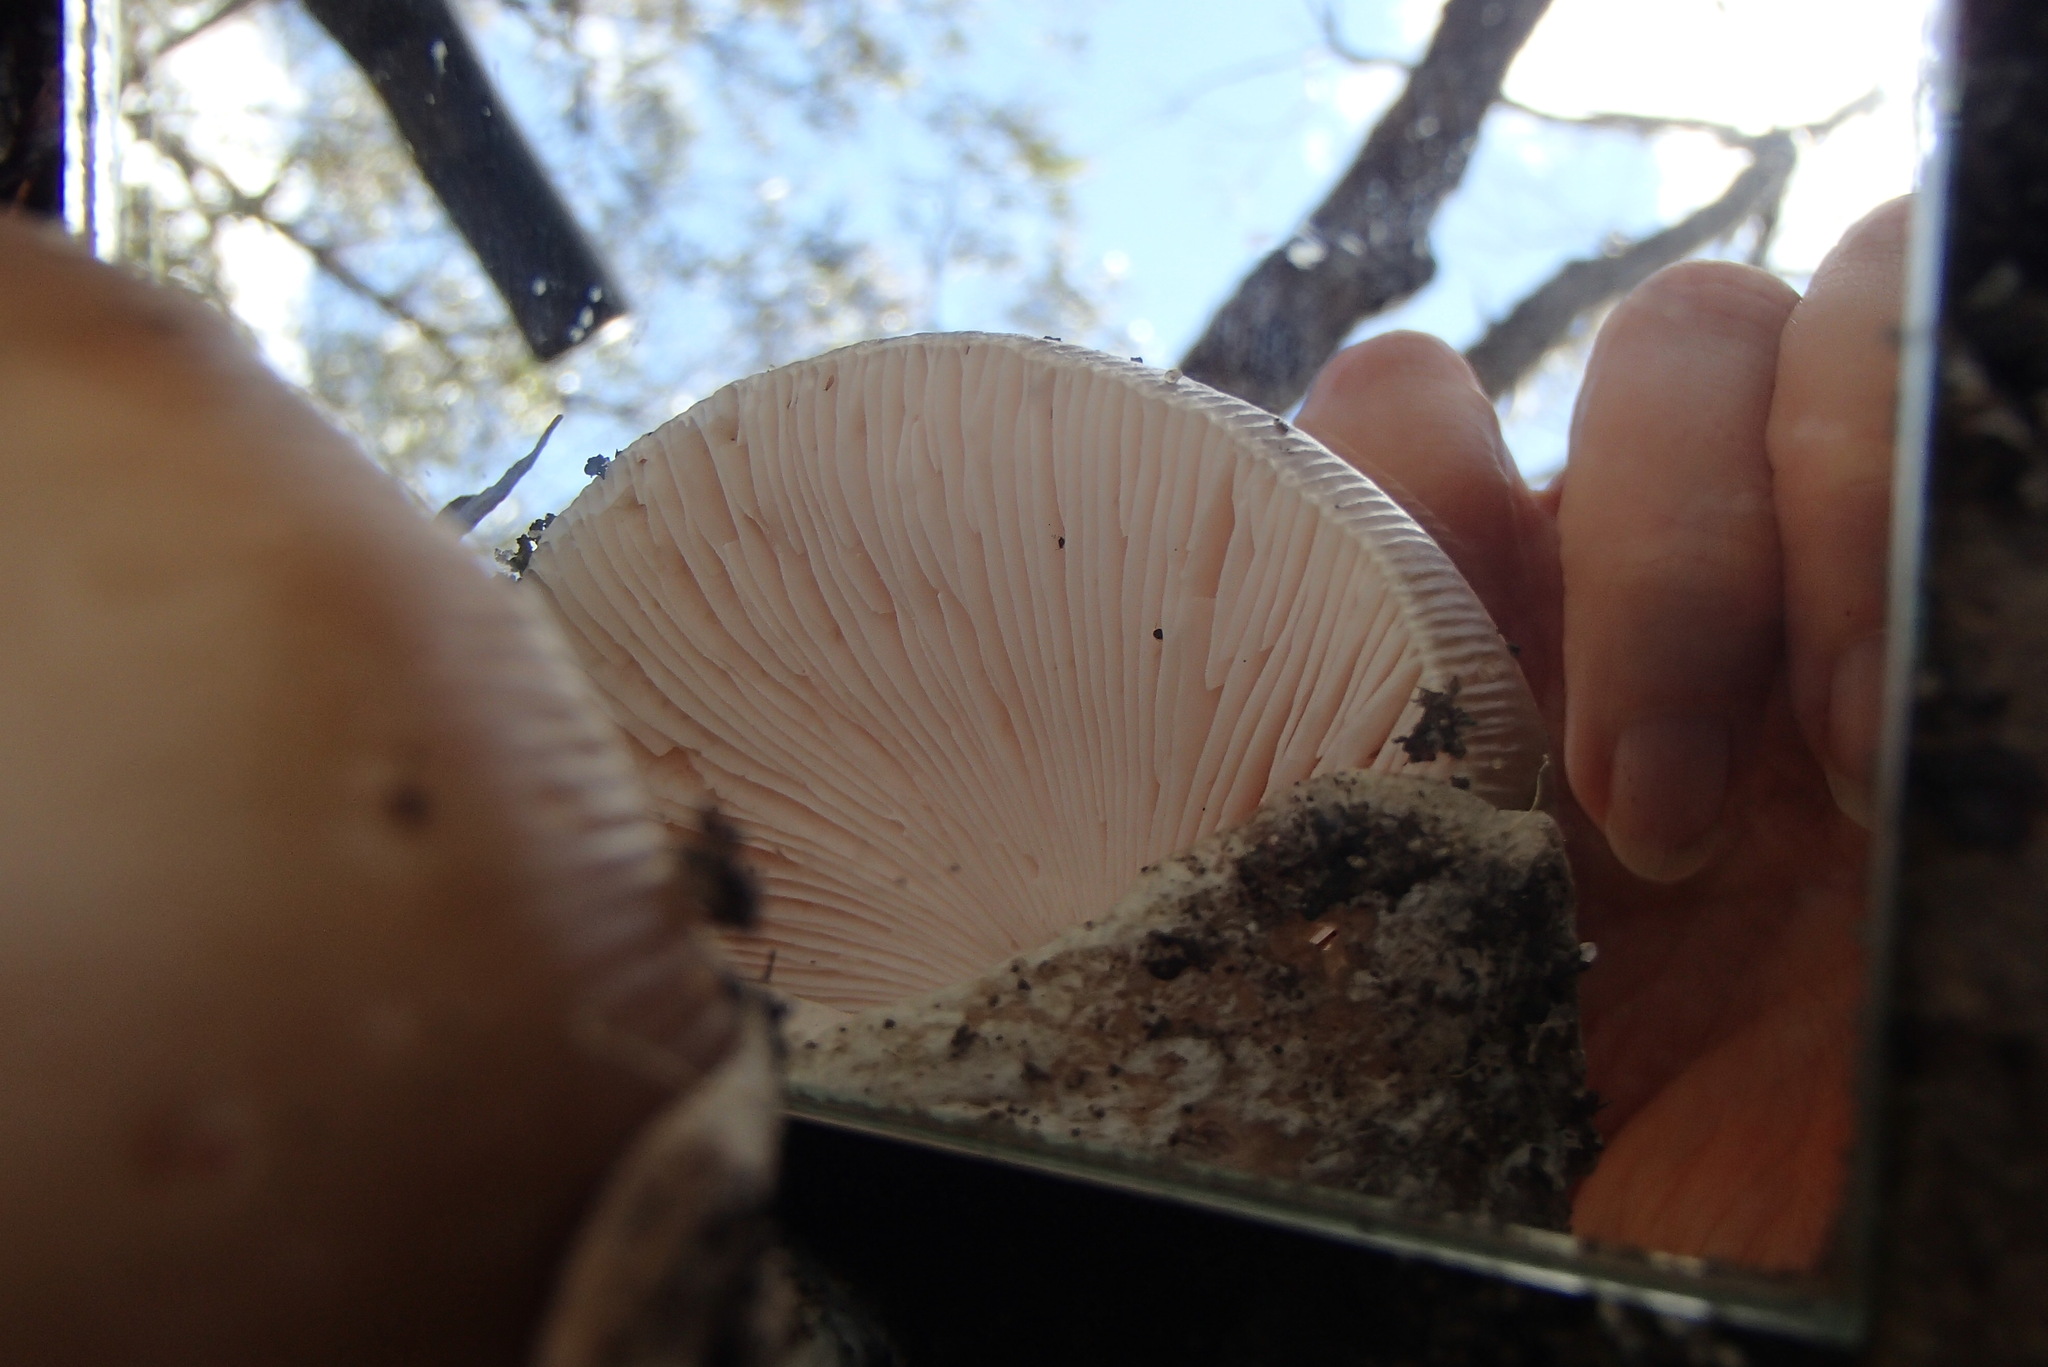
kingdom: Fungi
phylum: Basidiomycota
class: Agaricomycetes
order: Agaricales
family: Amanitaceae
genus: Amanita
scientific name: Amanita roseolamellata
